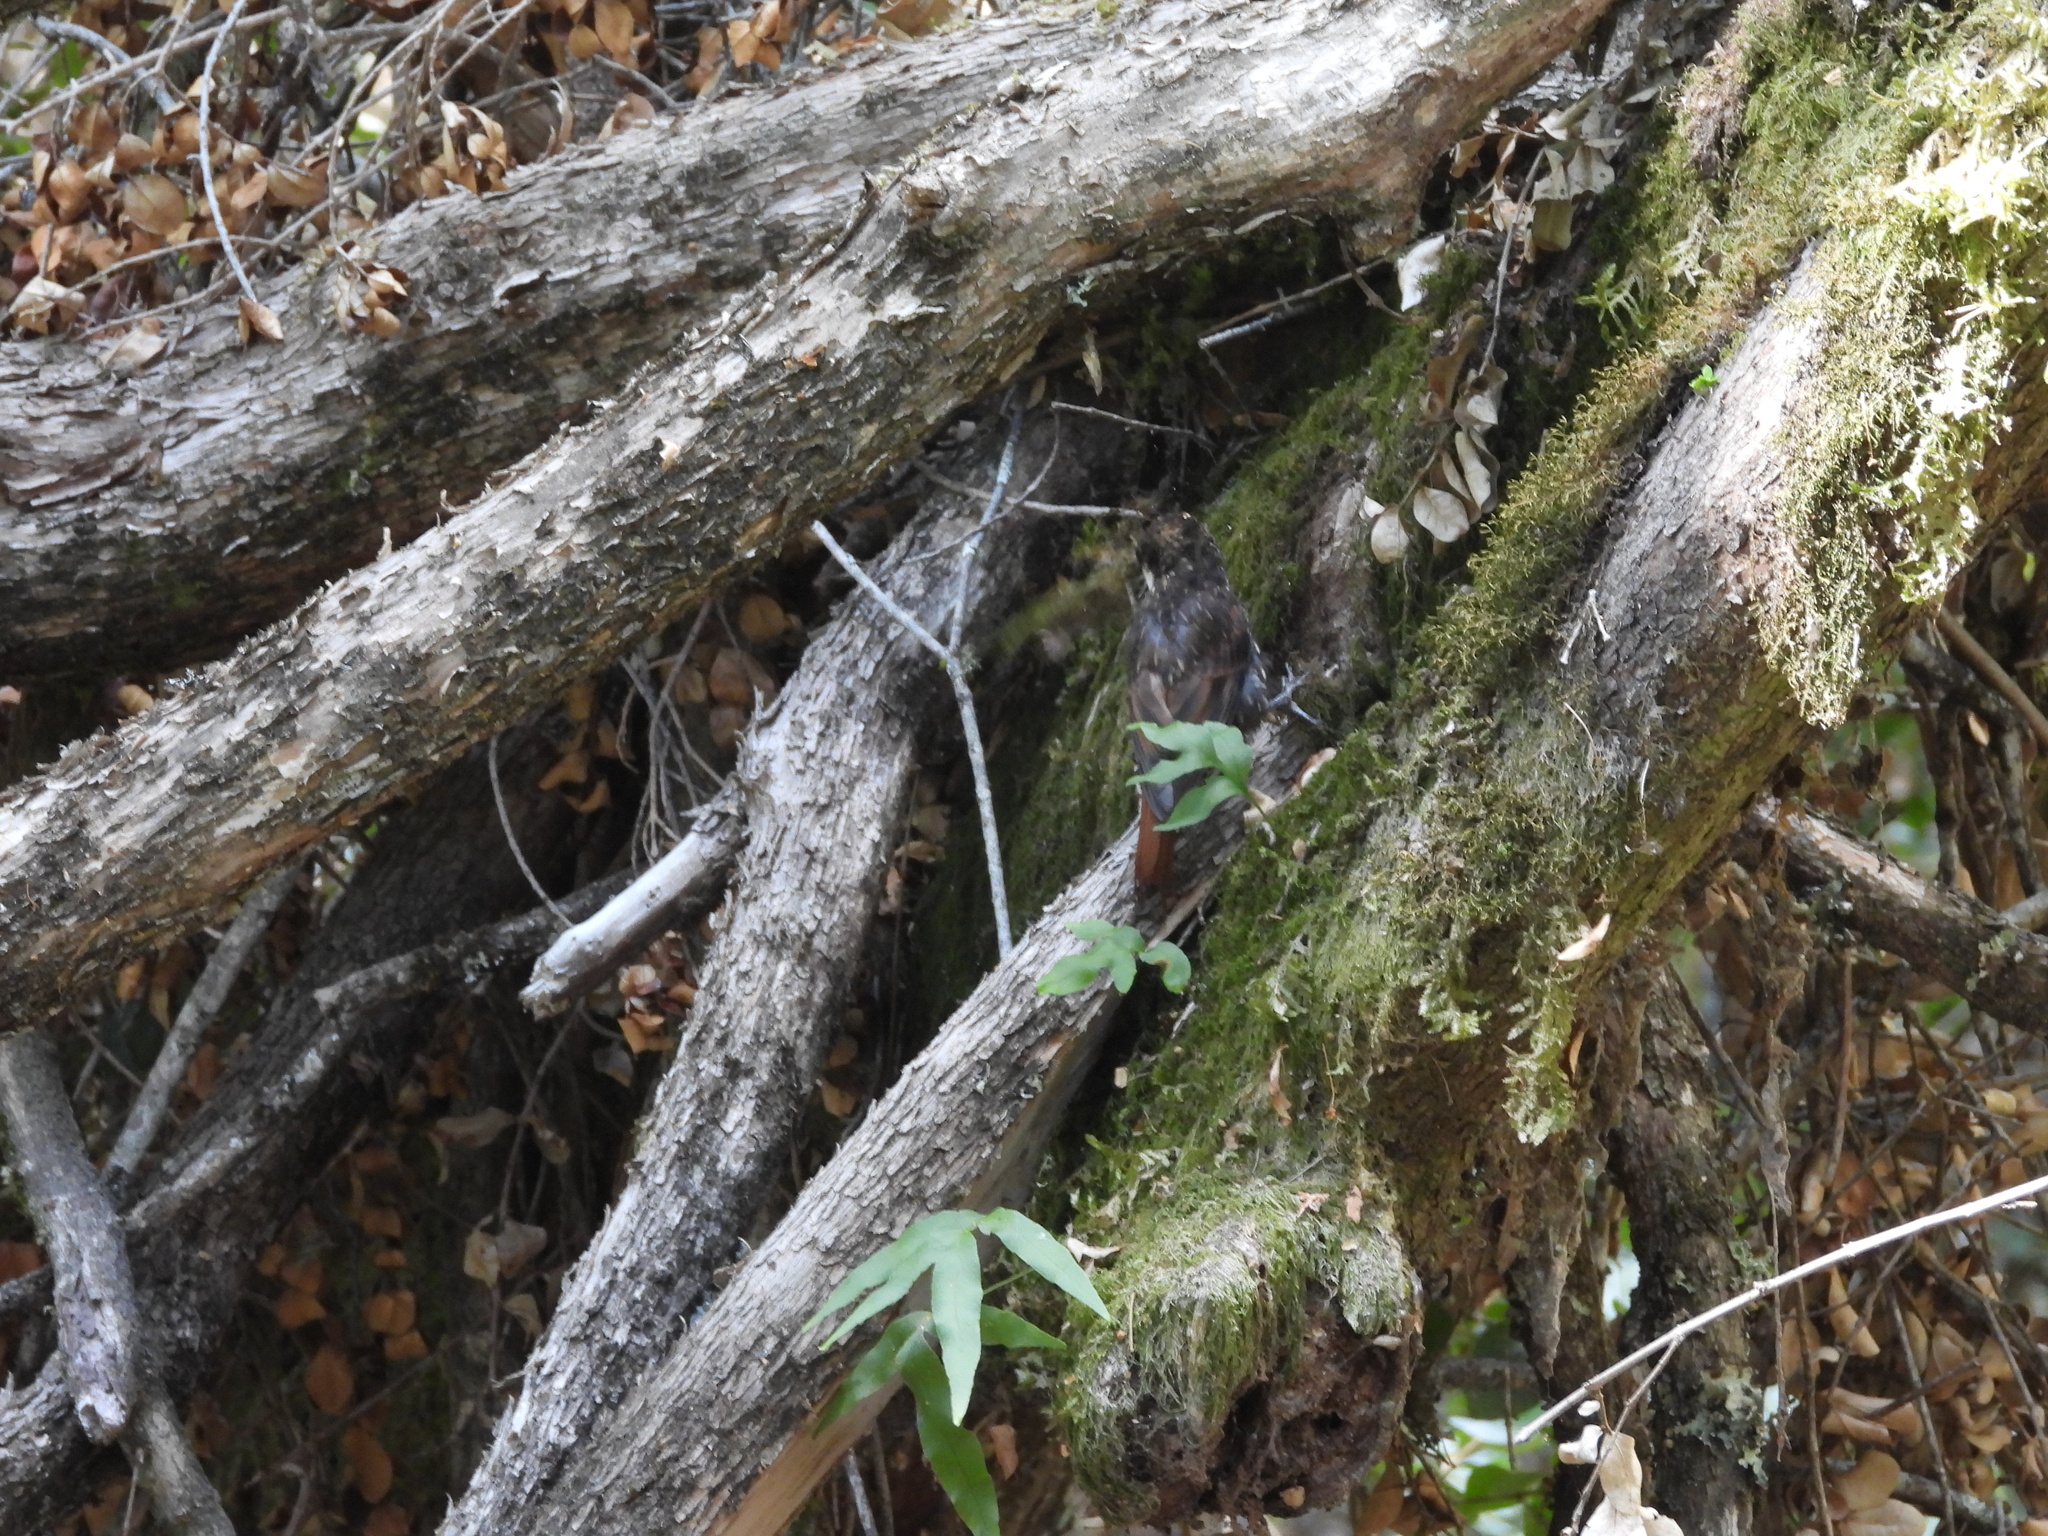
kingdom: Animalia
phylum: Chordata
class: Aves
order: Passeriformes
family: Furnariidae
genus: Pygarrhichas
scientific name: Pygarrhichas albogularis
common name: White-throated treerunner
